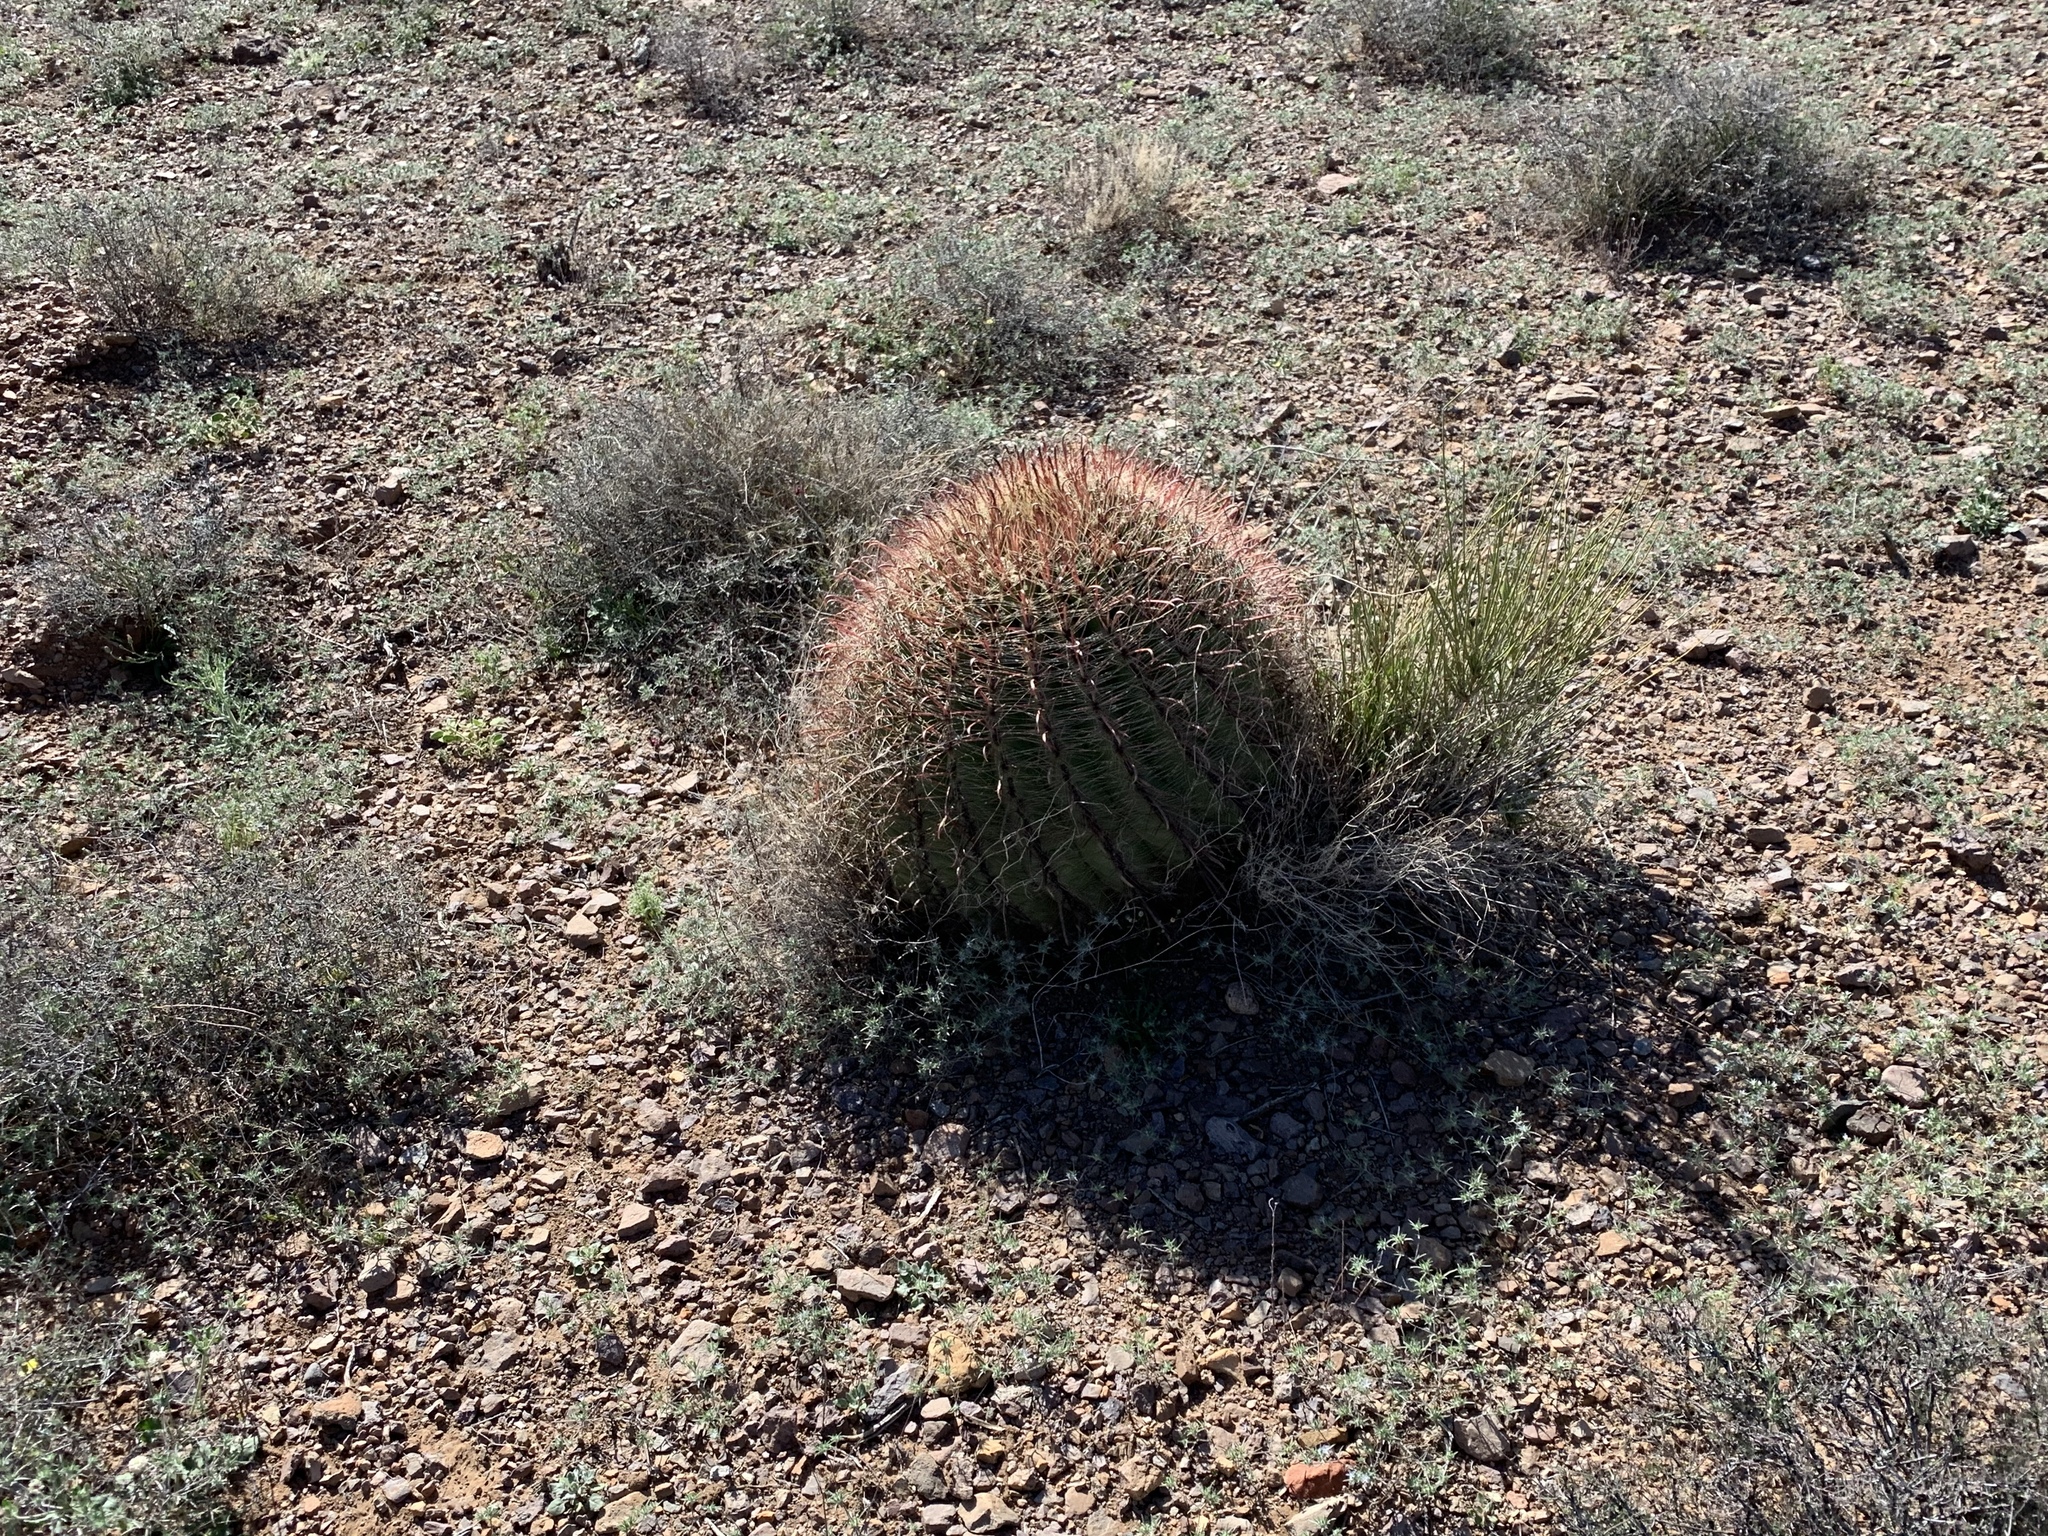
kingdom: Plantae
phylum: Tracheophyta
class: Magnoliopsida
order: Caryophyllales
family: Cactaceae
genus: Ferocactus
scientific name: Ferocactus wislizeni
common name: Candy barrel cactus
